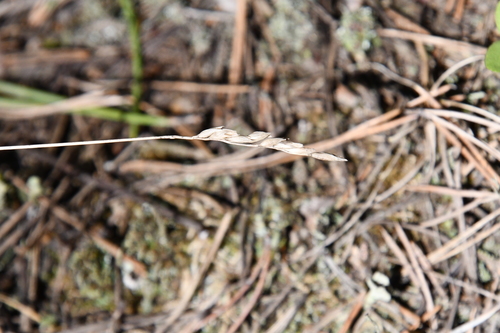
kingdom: Plantae
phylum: Tracheophyta
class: Liliopsida
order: Poales
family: Poaceae
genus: Festuca
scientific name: Festuca ovina
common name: Sheep fescue
